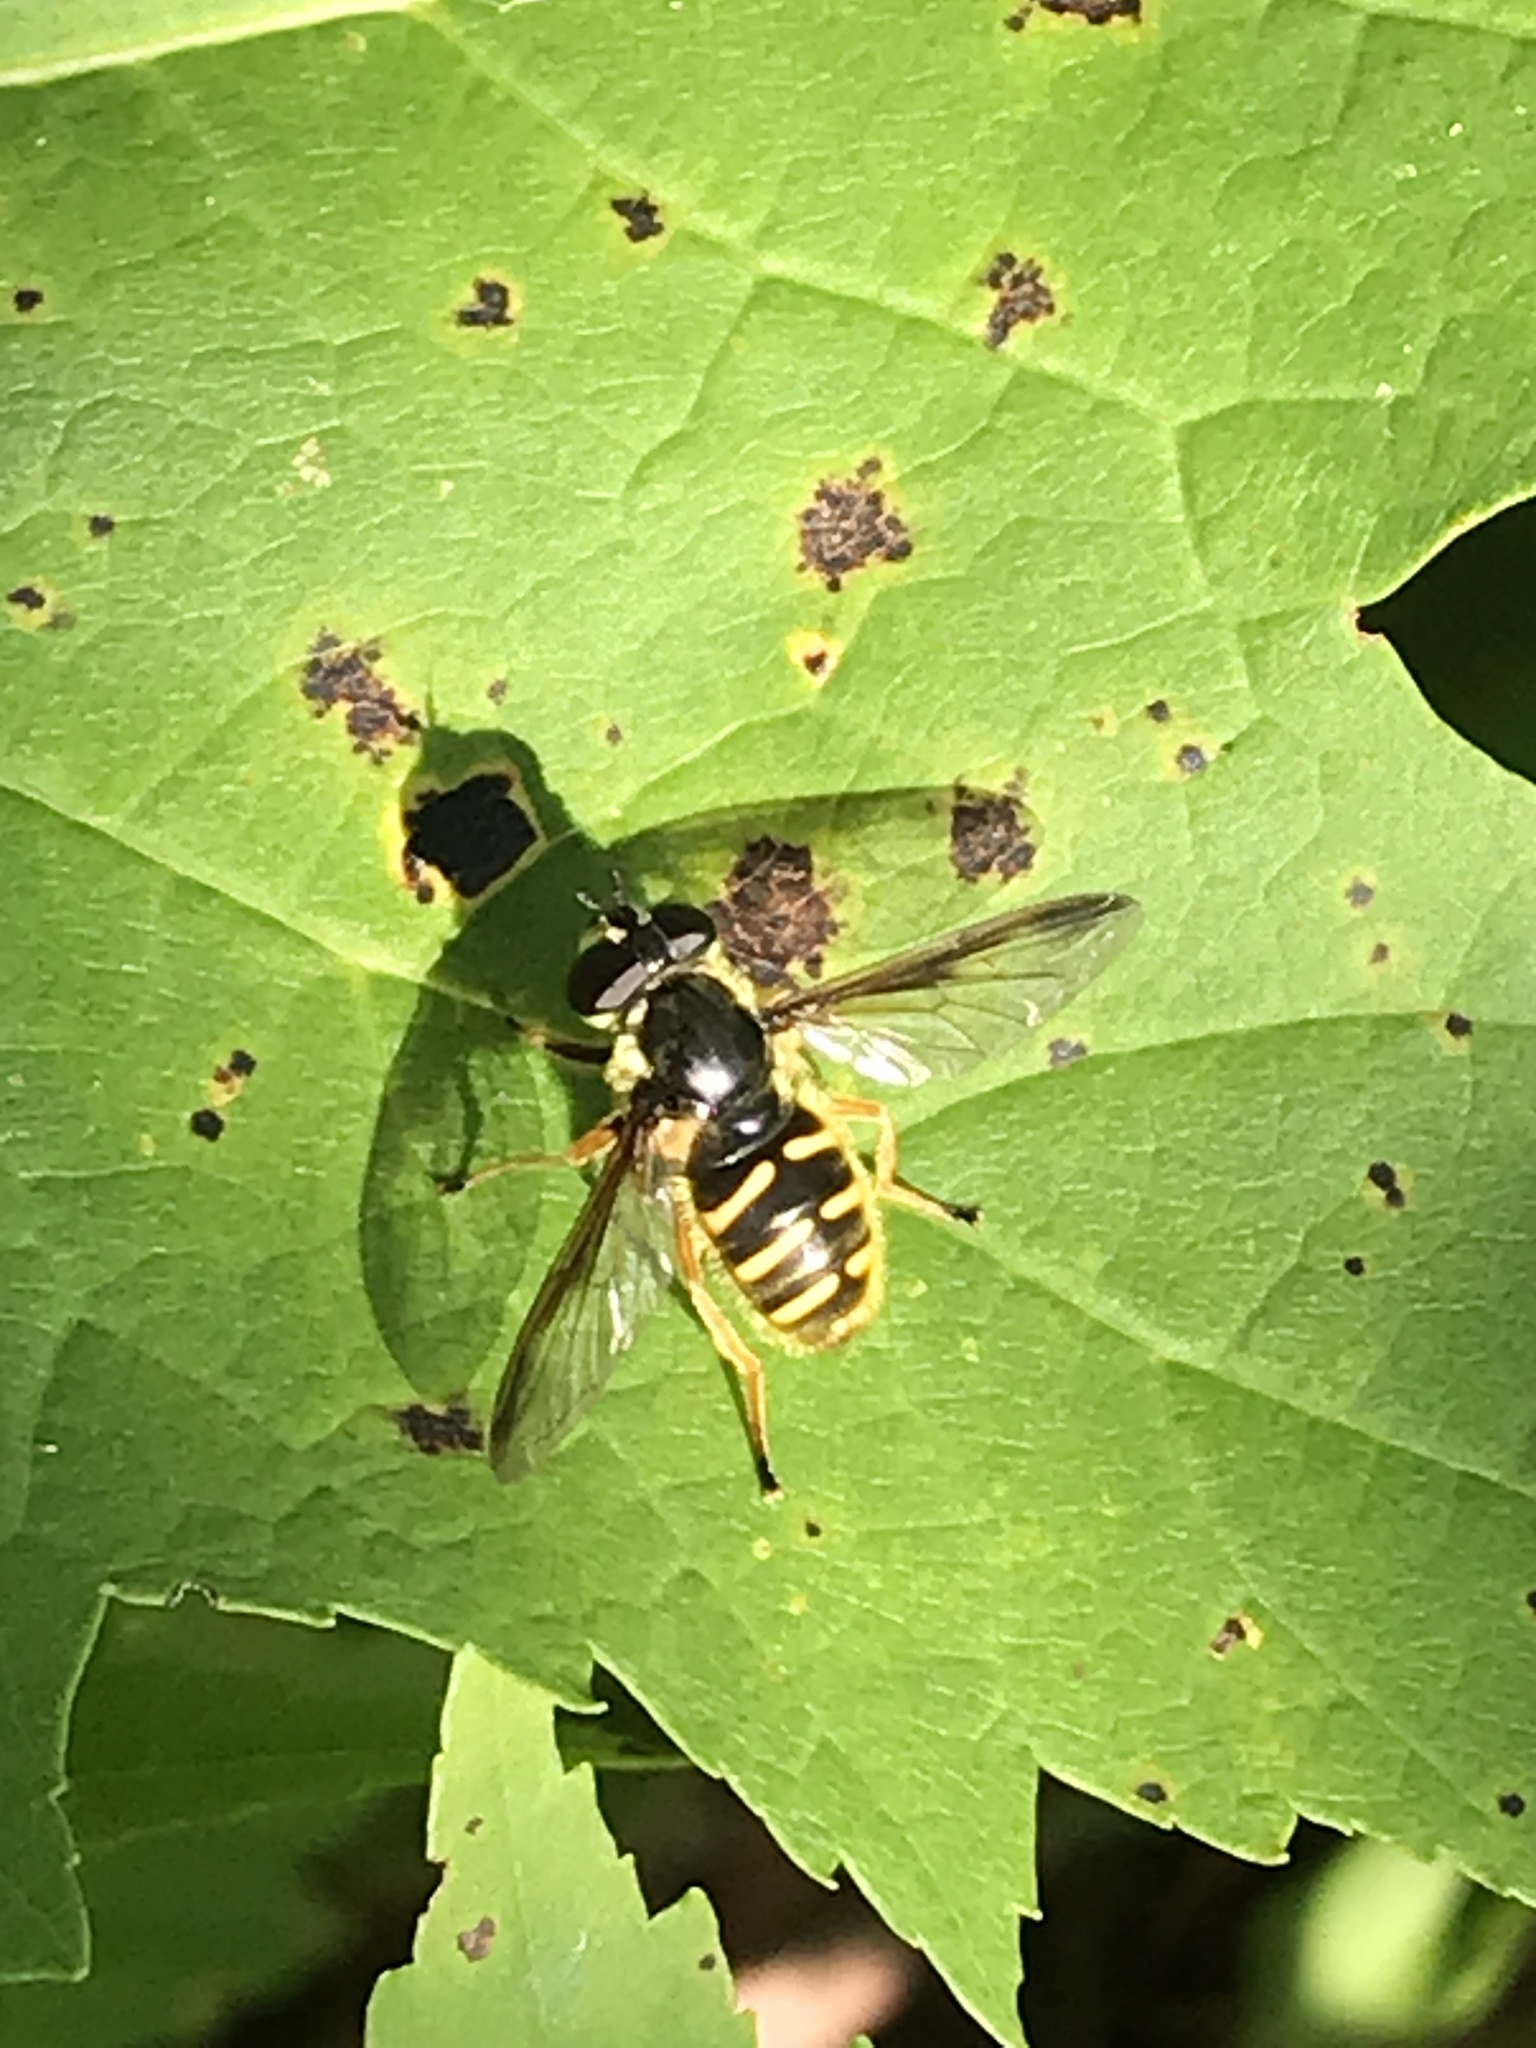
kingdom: Animalia
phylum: Arthropoda
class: Insecta
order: Diptera
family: Syrphidae
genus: Sericomyia
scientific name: Sericomyia chrysotoxoides
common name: Oblique-banded pond fly
